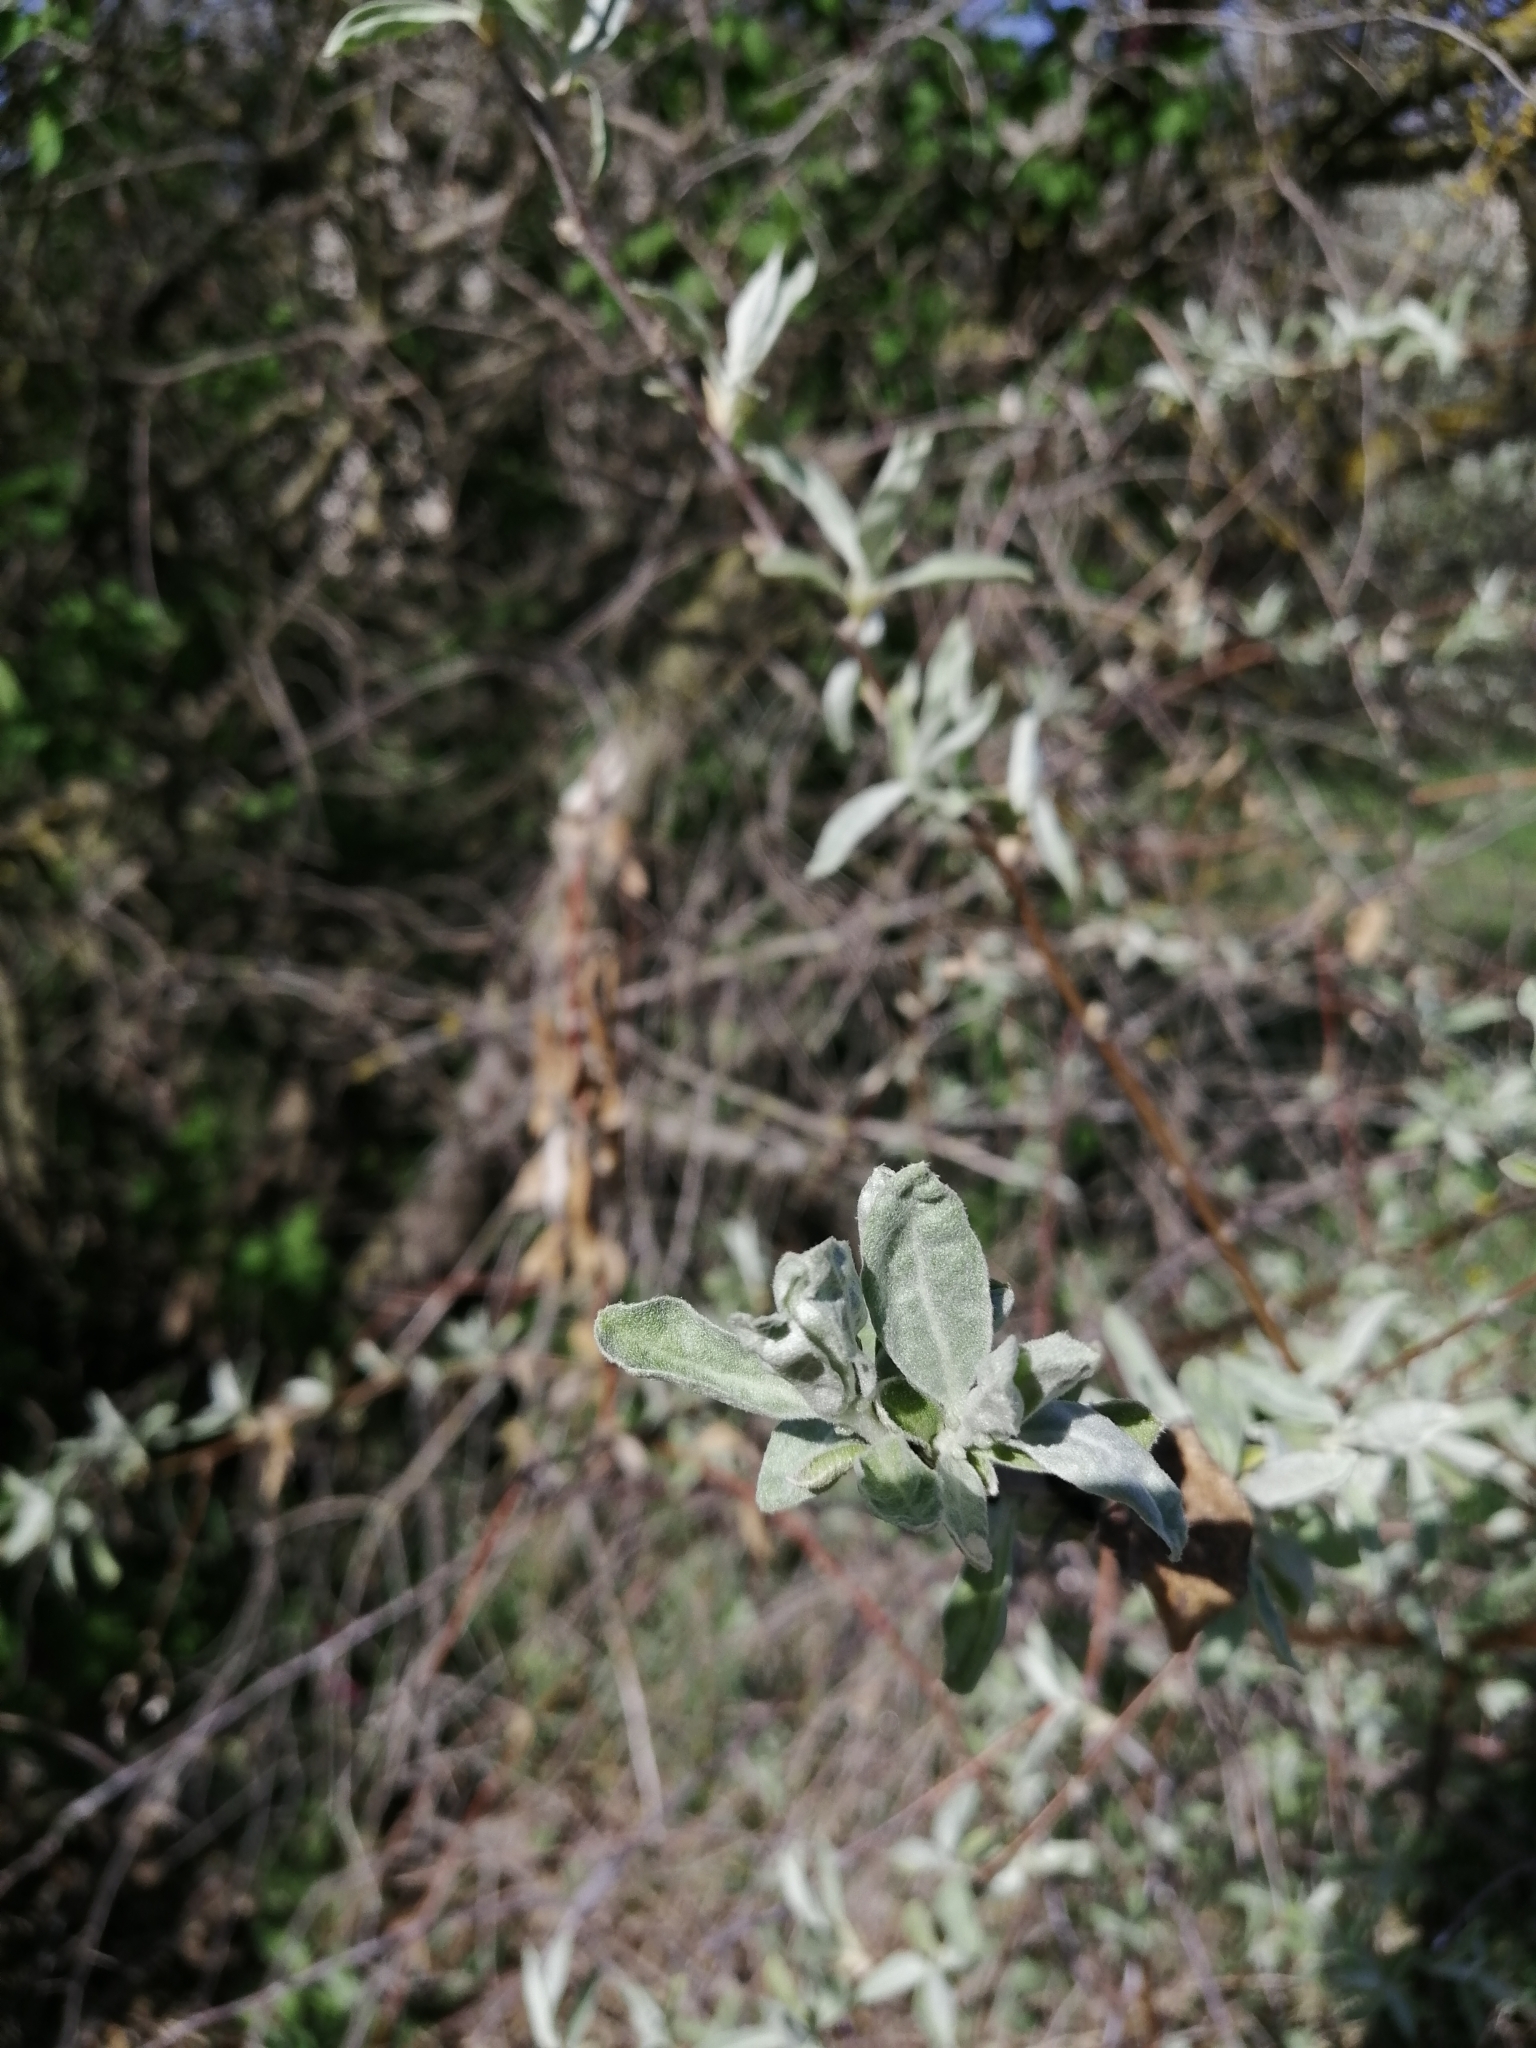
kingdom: Plantae
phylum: Tracheophyta
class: Magnoliopsida
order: Rosales
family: Elaeagnaceae
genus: Elaeagnus
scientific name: Elaeagnus angustifolia
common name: Russian olive
